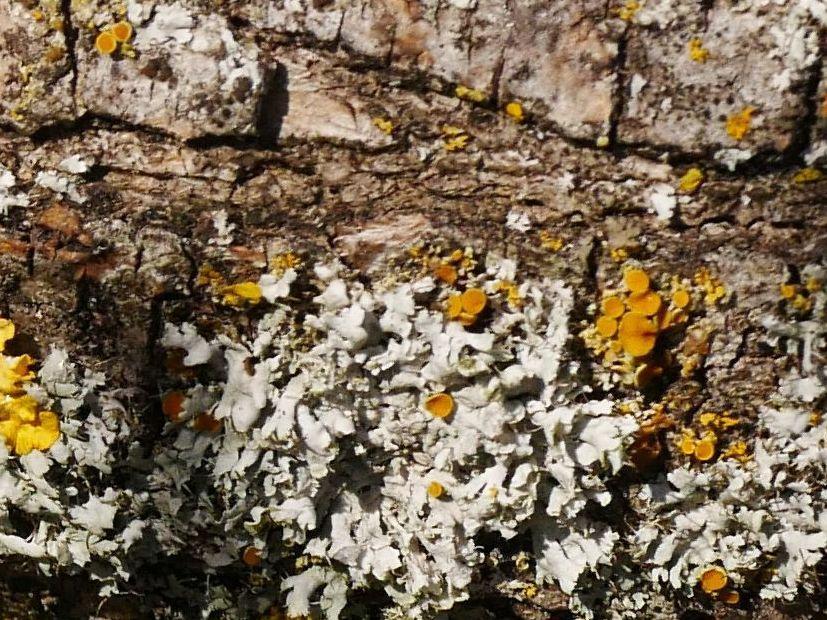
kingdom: Fungi
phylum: Ascomycota
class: Lecanoromycetes
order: Teloschistales
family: Teloschistaceae
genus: Polycauliona
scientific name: Polycauliona polycarpa
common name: Pin-cushion sunburst lichen
